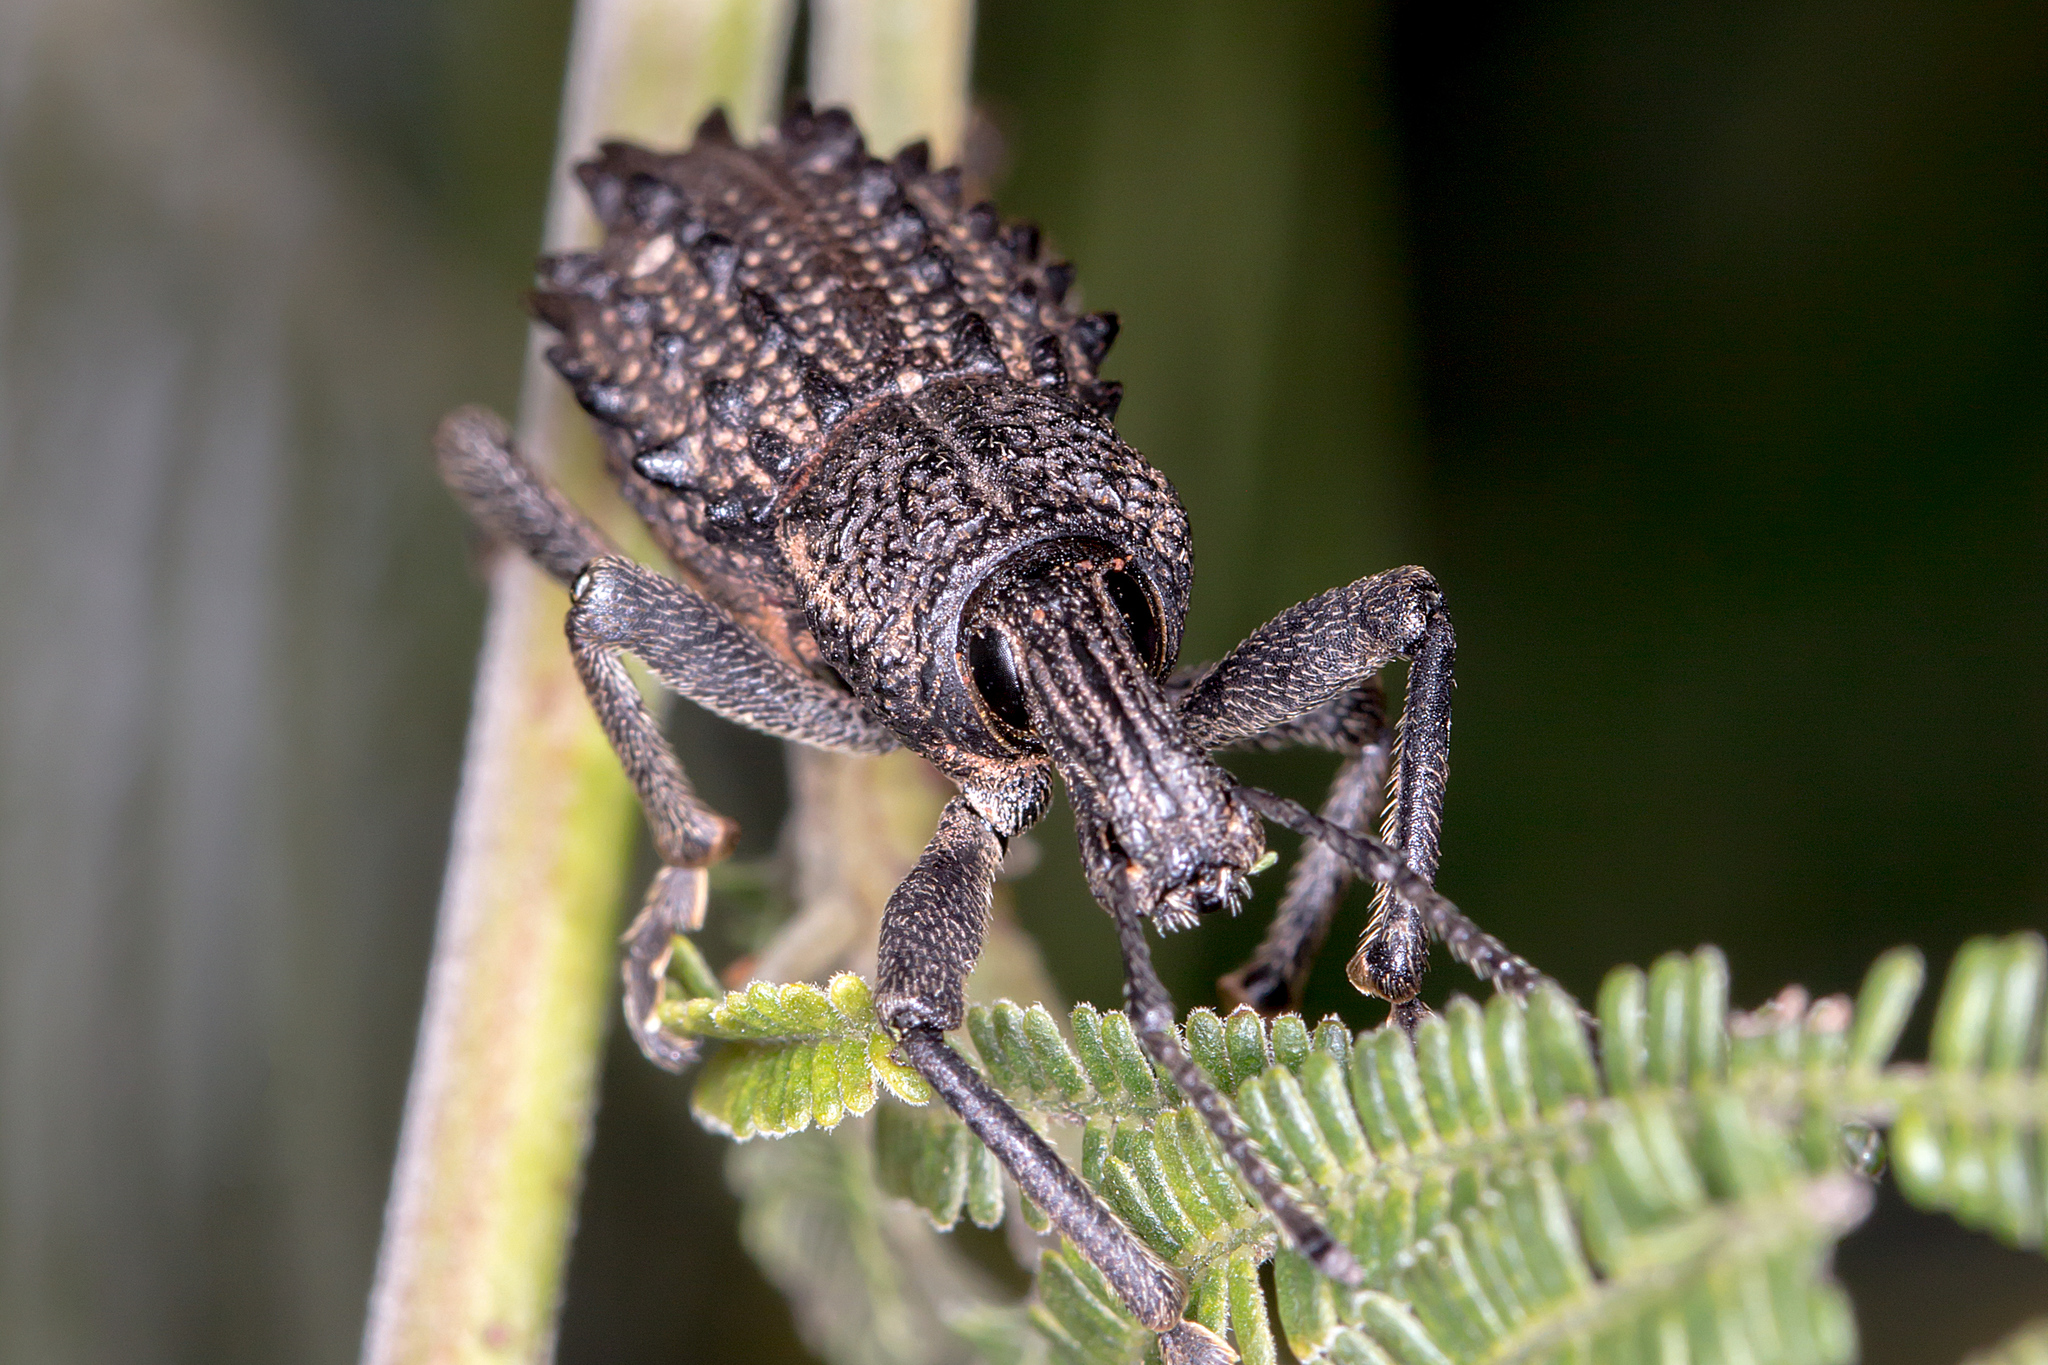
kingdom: Animalia
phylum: Arthropoda
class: Insecta
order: Coleoptera
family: Curculionidae
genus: Leptopius
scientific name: Leptopius duponti
